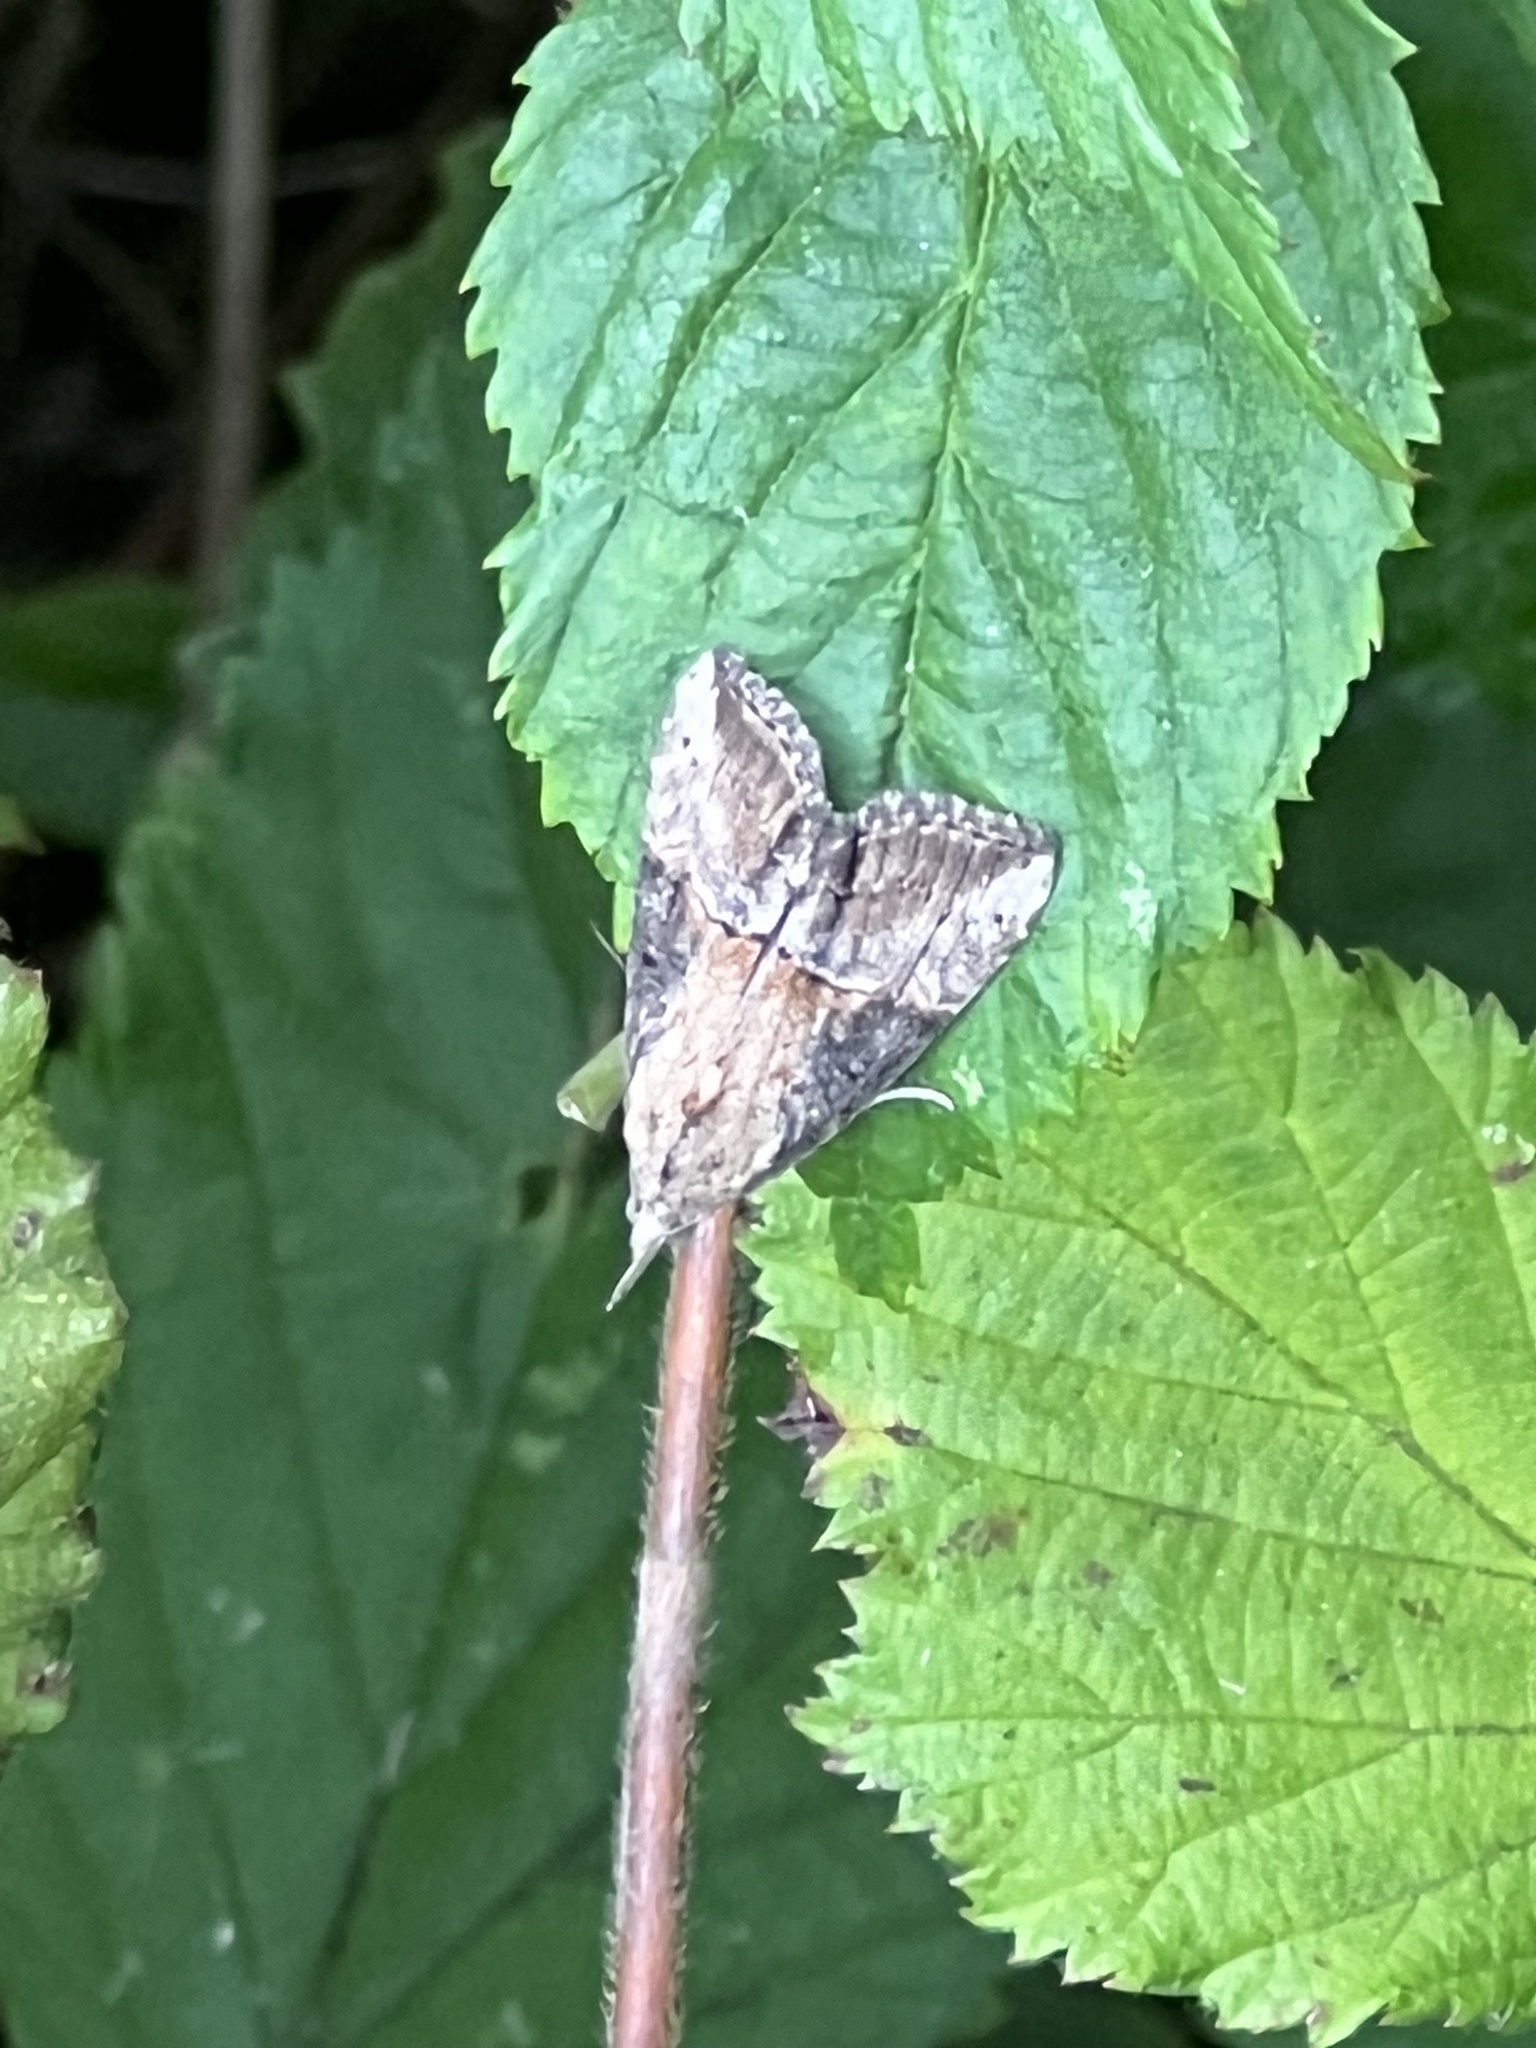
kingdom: Animalia
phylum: Arthropoda
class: Insecta
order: Lepidoptera
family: Erebidae
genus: Hypena
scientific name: Hypena scabra
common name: Green cloverworm
